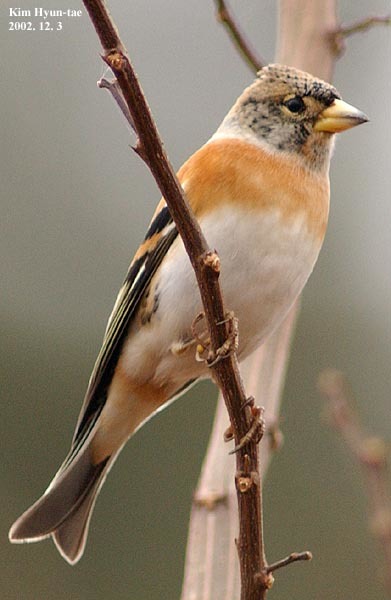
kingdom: Animalia
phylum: Chordata
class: Aves
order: Passeriformes
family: Fringillidae
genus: Fringilla
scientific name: Fringilla montifringilla
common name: Brambling
